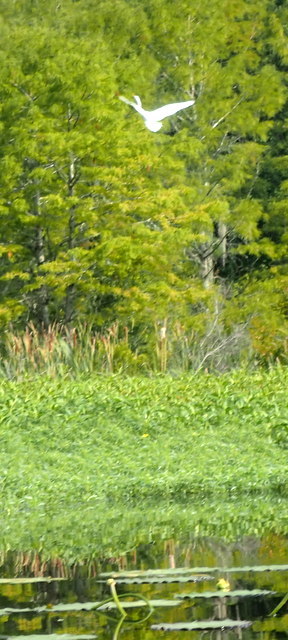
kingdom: Animalia
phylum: Chordata
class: Aves
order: Pelecaniformes
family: Ardeidae
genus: Ardea
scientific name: Ardea alba
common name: Great egret
